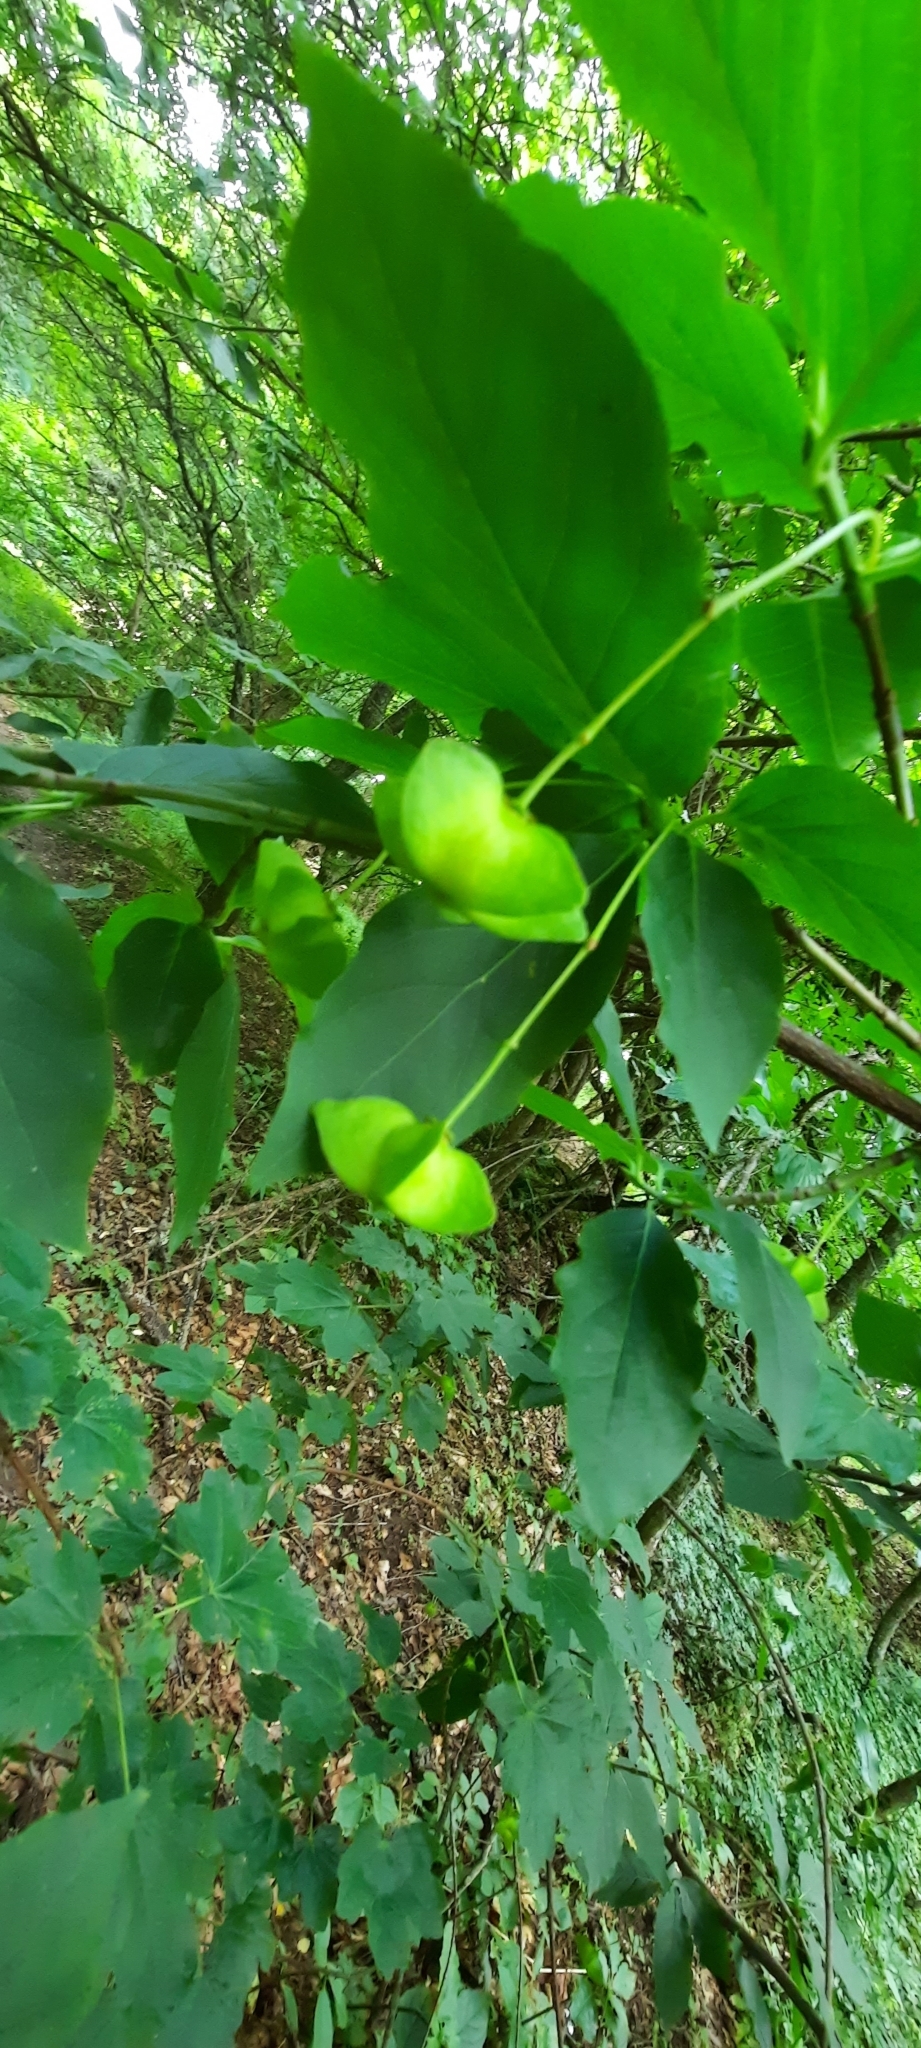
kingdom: Plantae
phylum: Tracheophyta
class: Magnoliopsida
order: Celastrales
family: Celastraceae
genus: Euonymus
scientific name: Euonymus latifolius
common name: Large-leaved spindle
